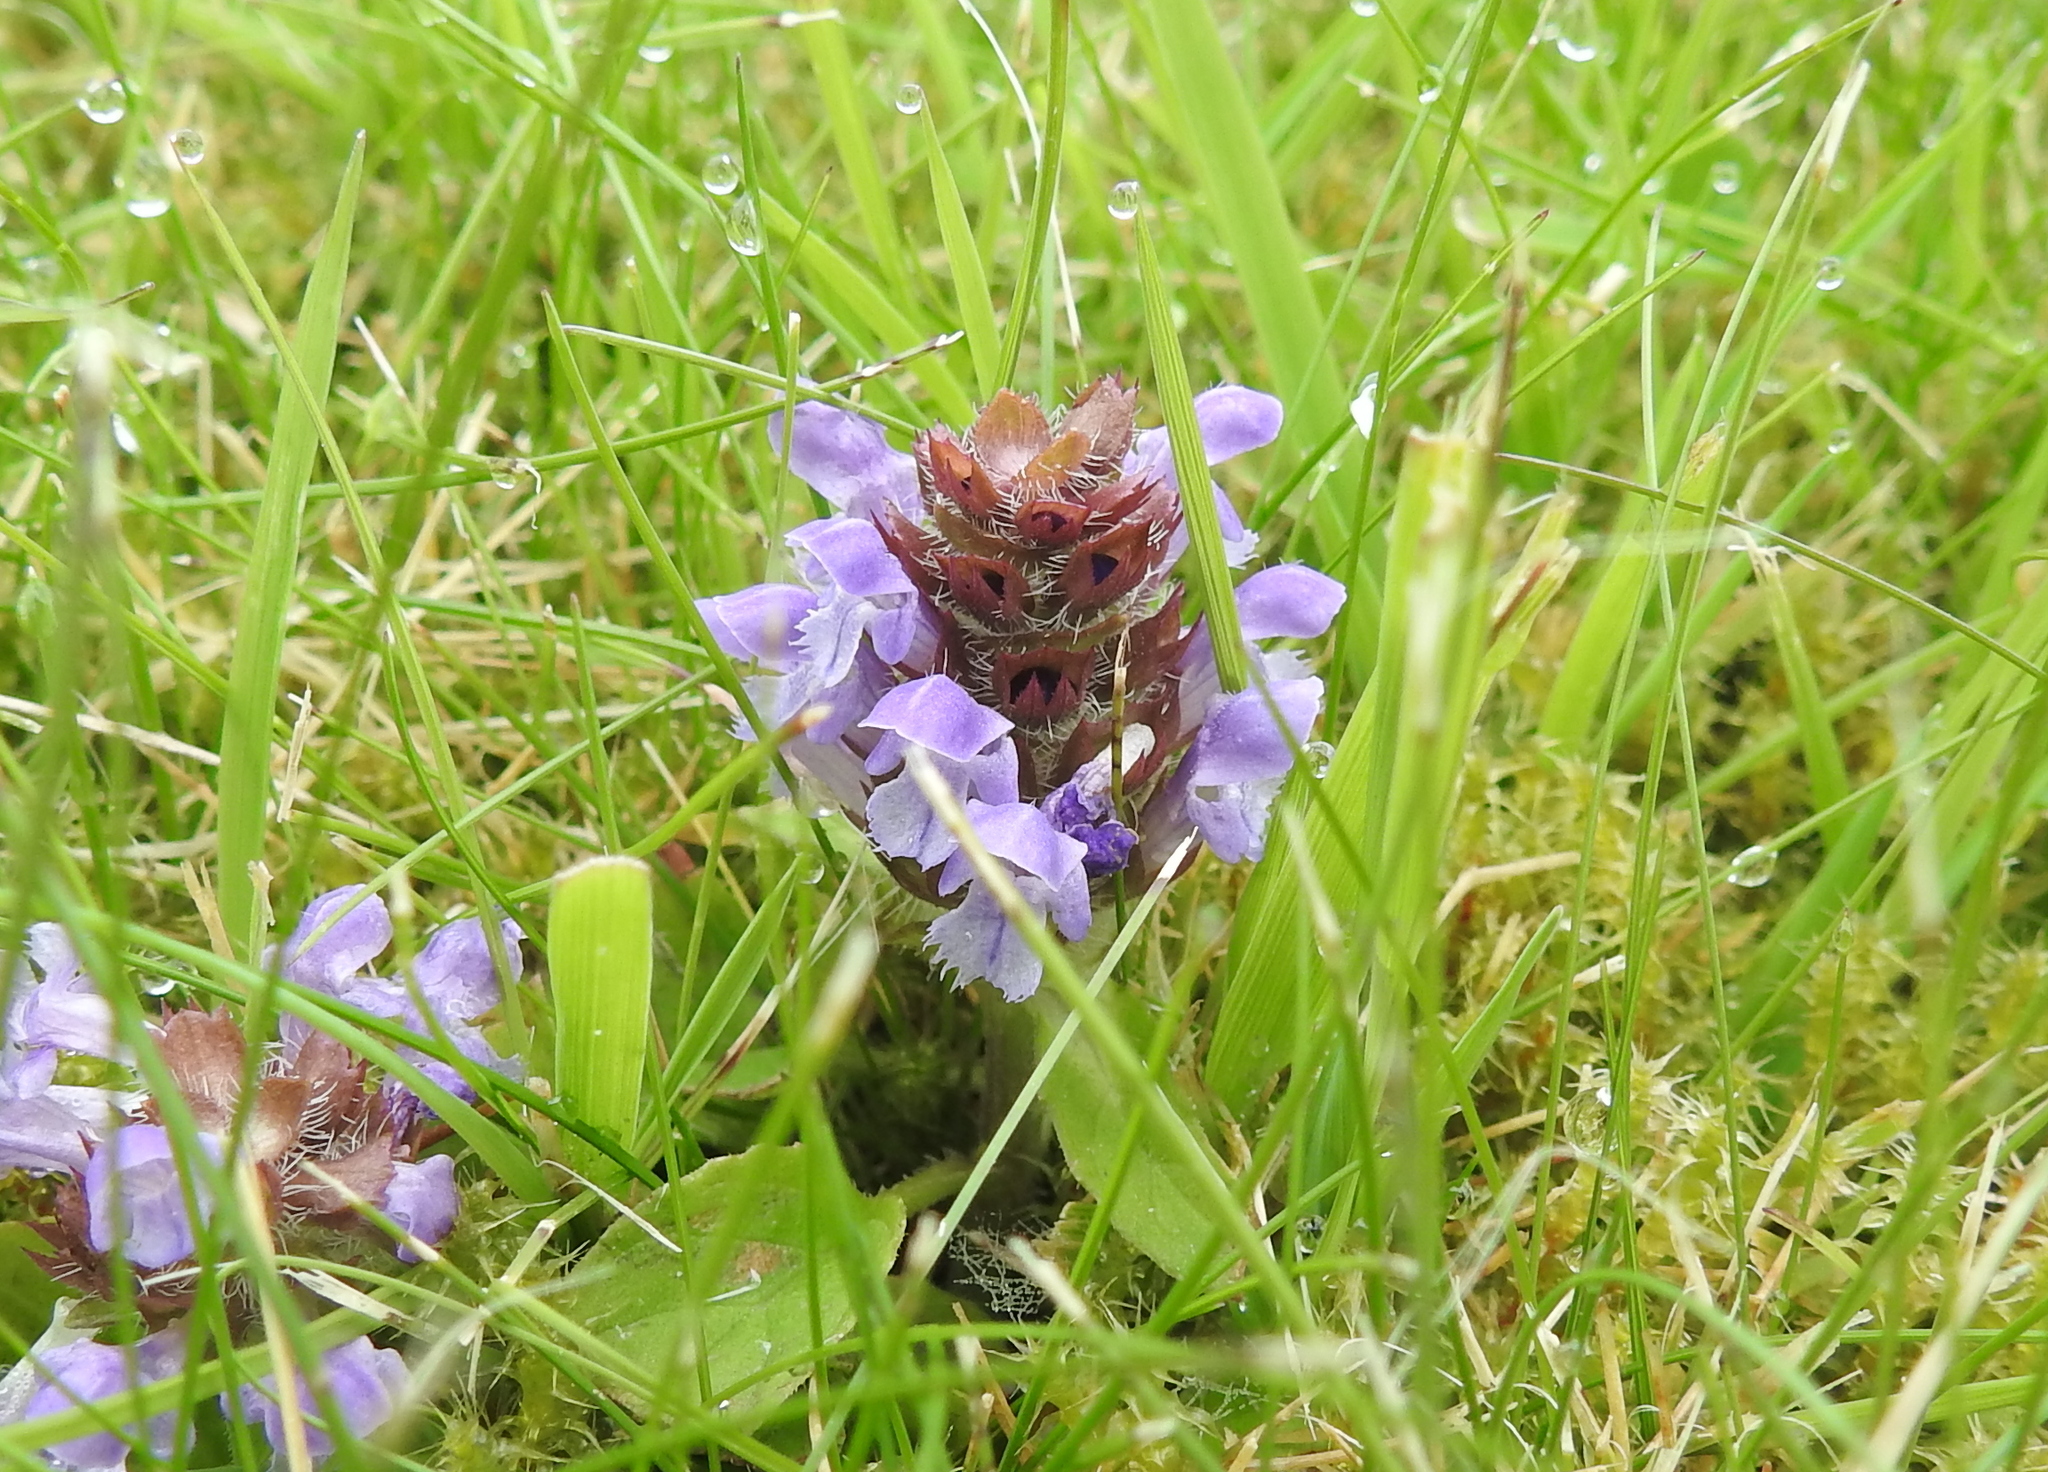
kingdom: Plantae
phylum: Tracheophyta
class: Magnoliopsida
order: Lamiales
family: Lamiaceae
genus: Prunella
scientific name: Prunella vulgaris
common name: Heal-all
